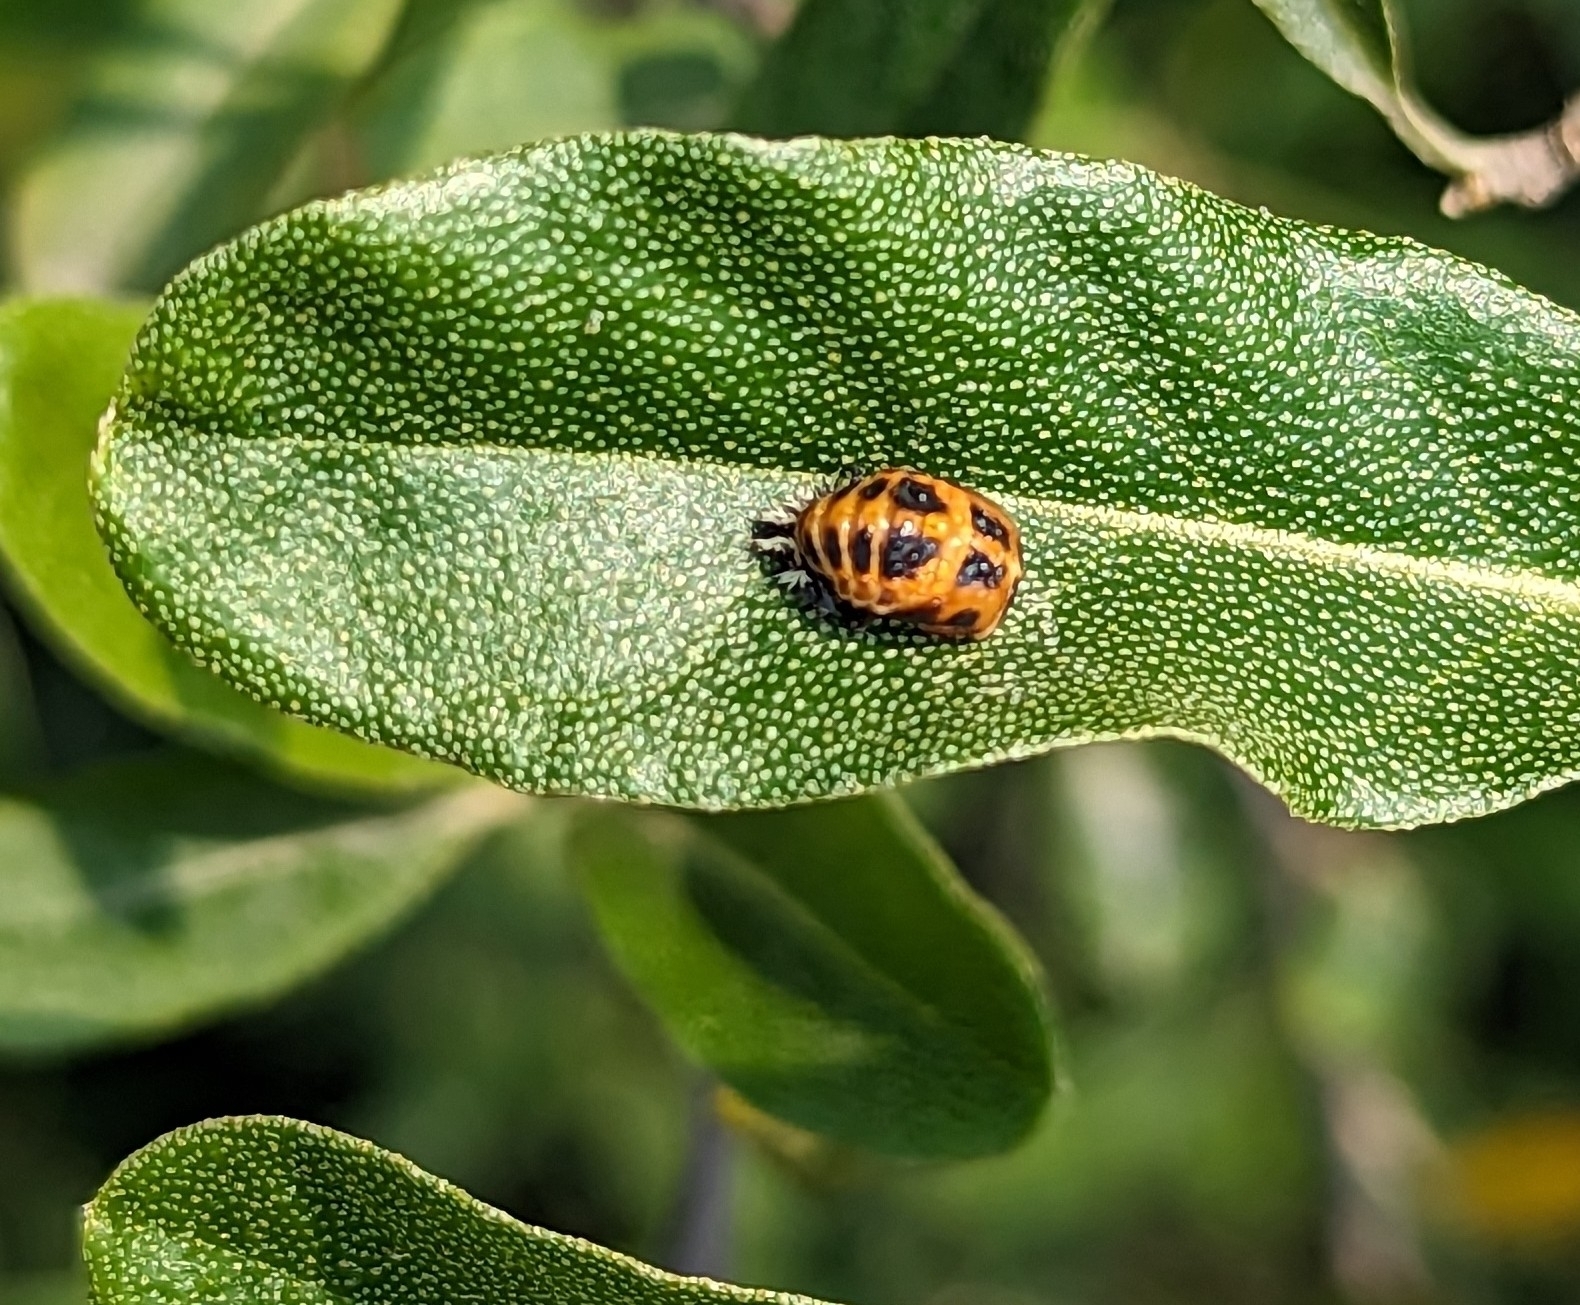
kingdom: Animalia
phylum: Arthropoda
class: Insecta
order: Coleoptera
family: Coccinellidae
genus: Harmonia
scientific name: Harmonia axyridis
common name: Harlequin ladybird
